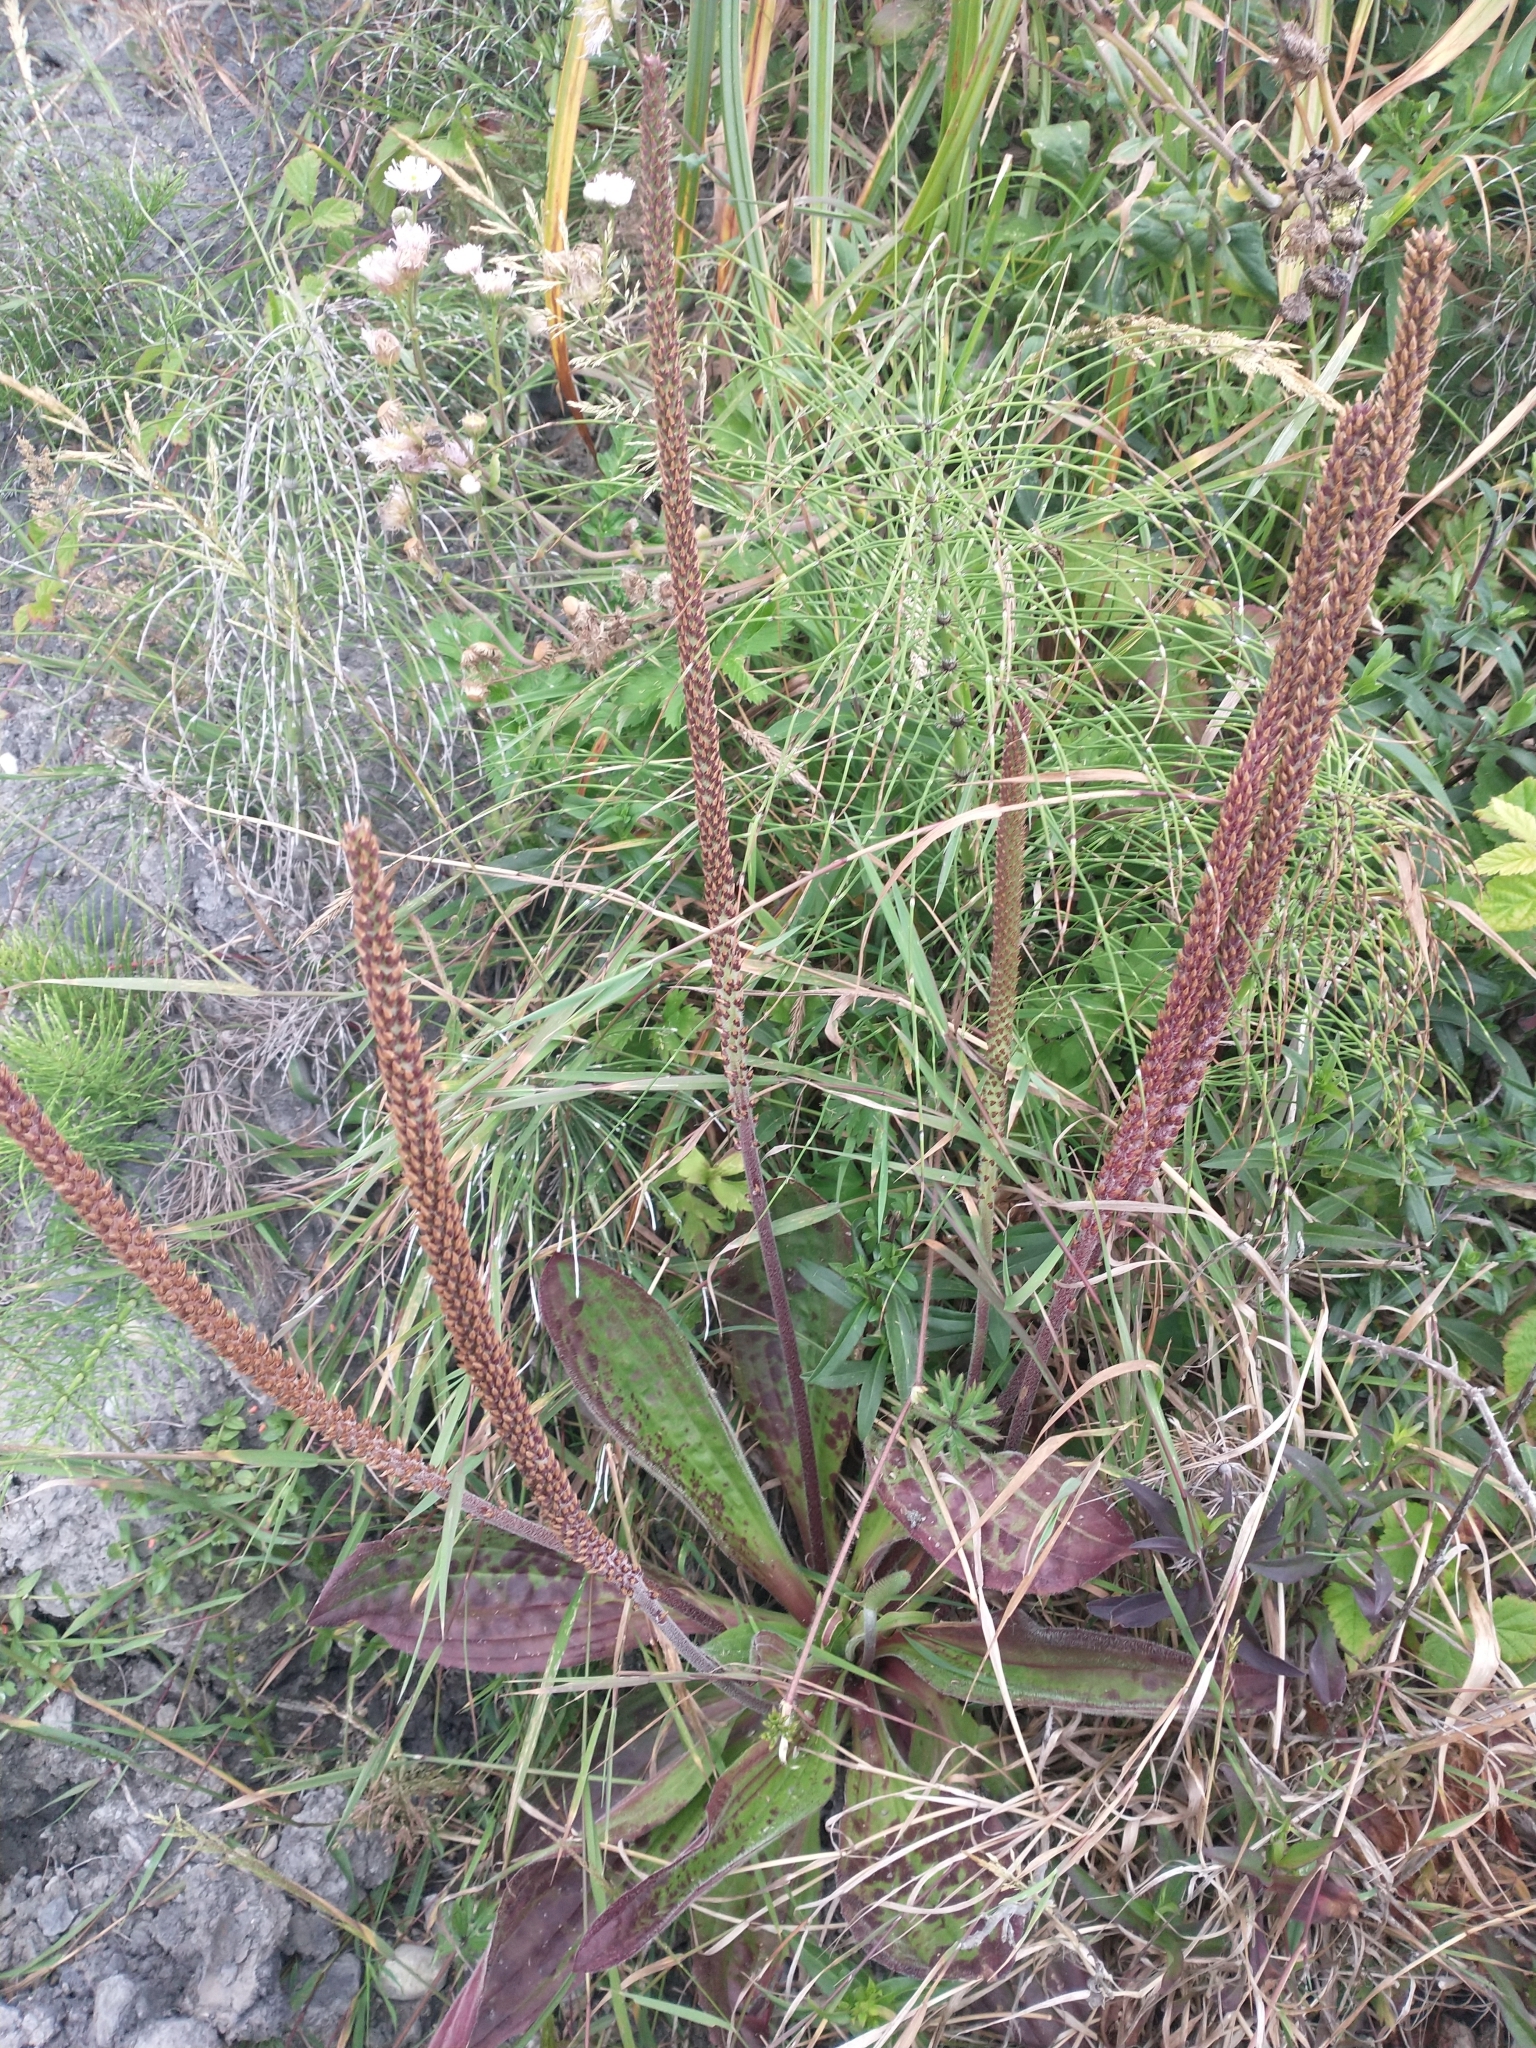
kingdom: Plantae
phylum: Tracheophyta
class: Magnoliopsida
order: Lamiales
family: Plantaginaceae
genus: Plantago
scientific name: Plantago subnuda
